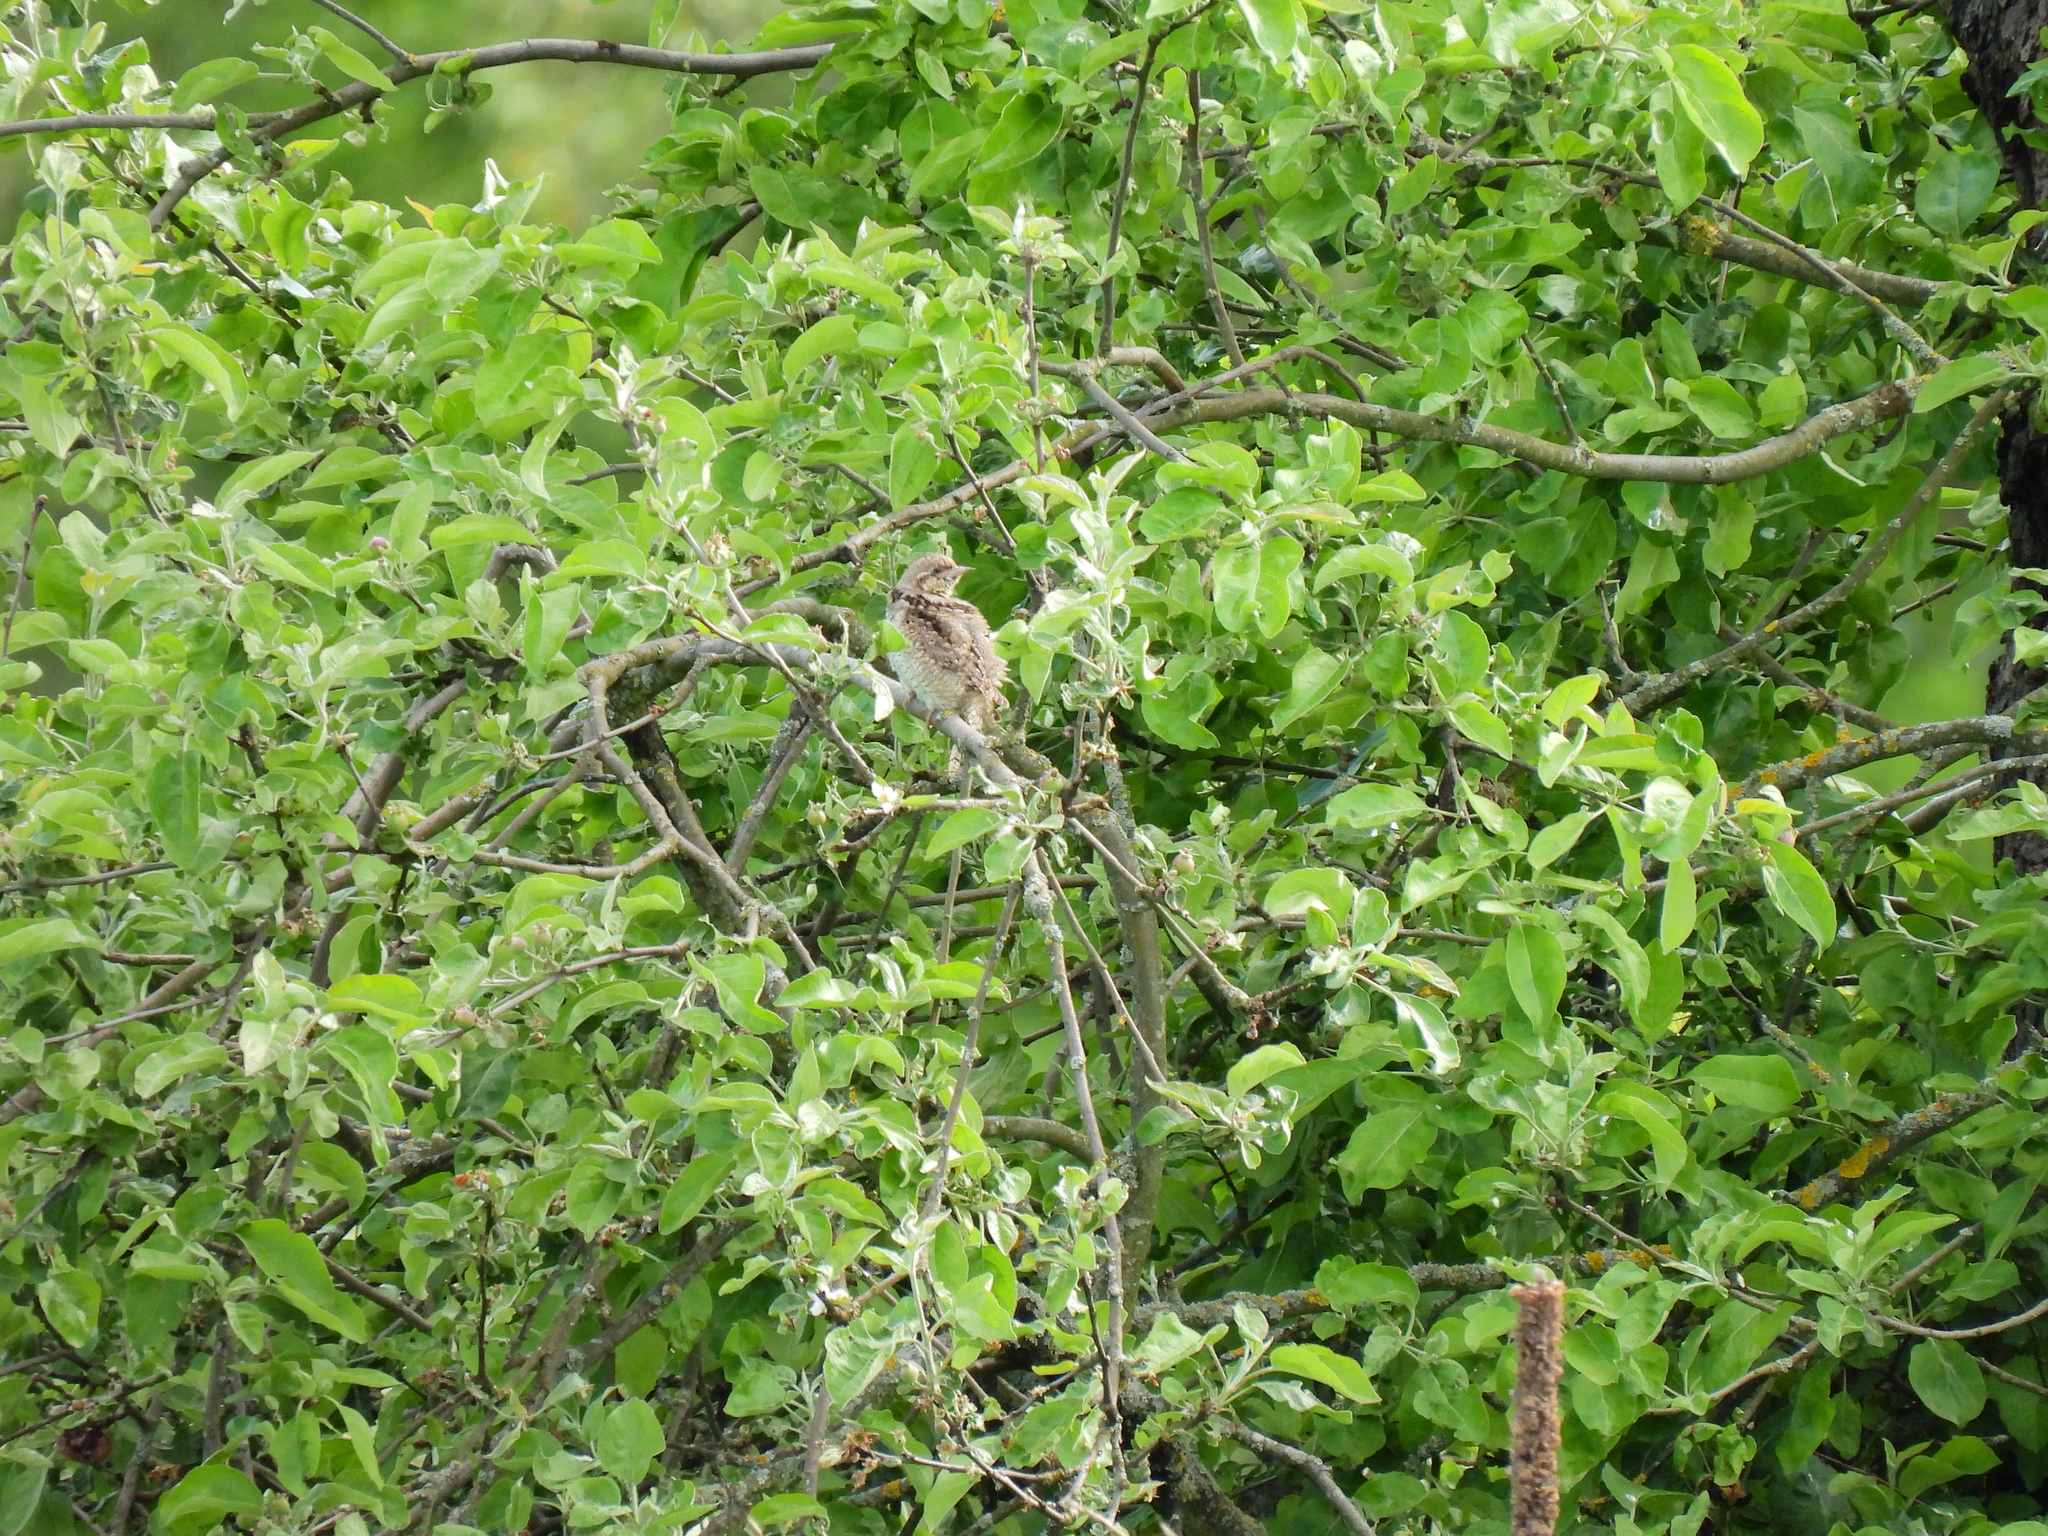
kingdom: Animalia
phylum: Chordata
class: Aves
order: Piciformes
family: Picidae
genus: Jynx
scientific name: Jynx torquilla
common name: Eurasian wryneck
